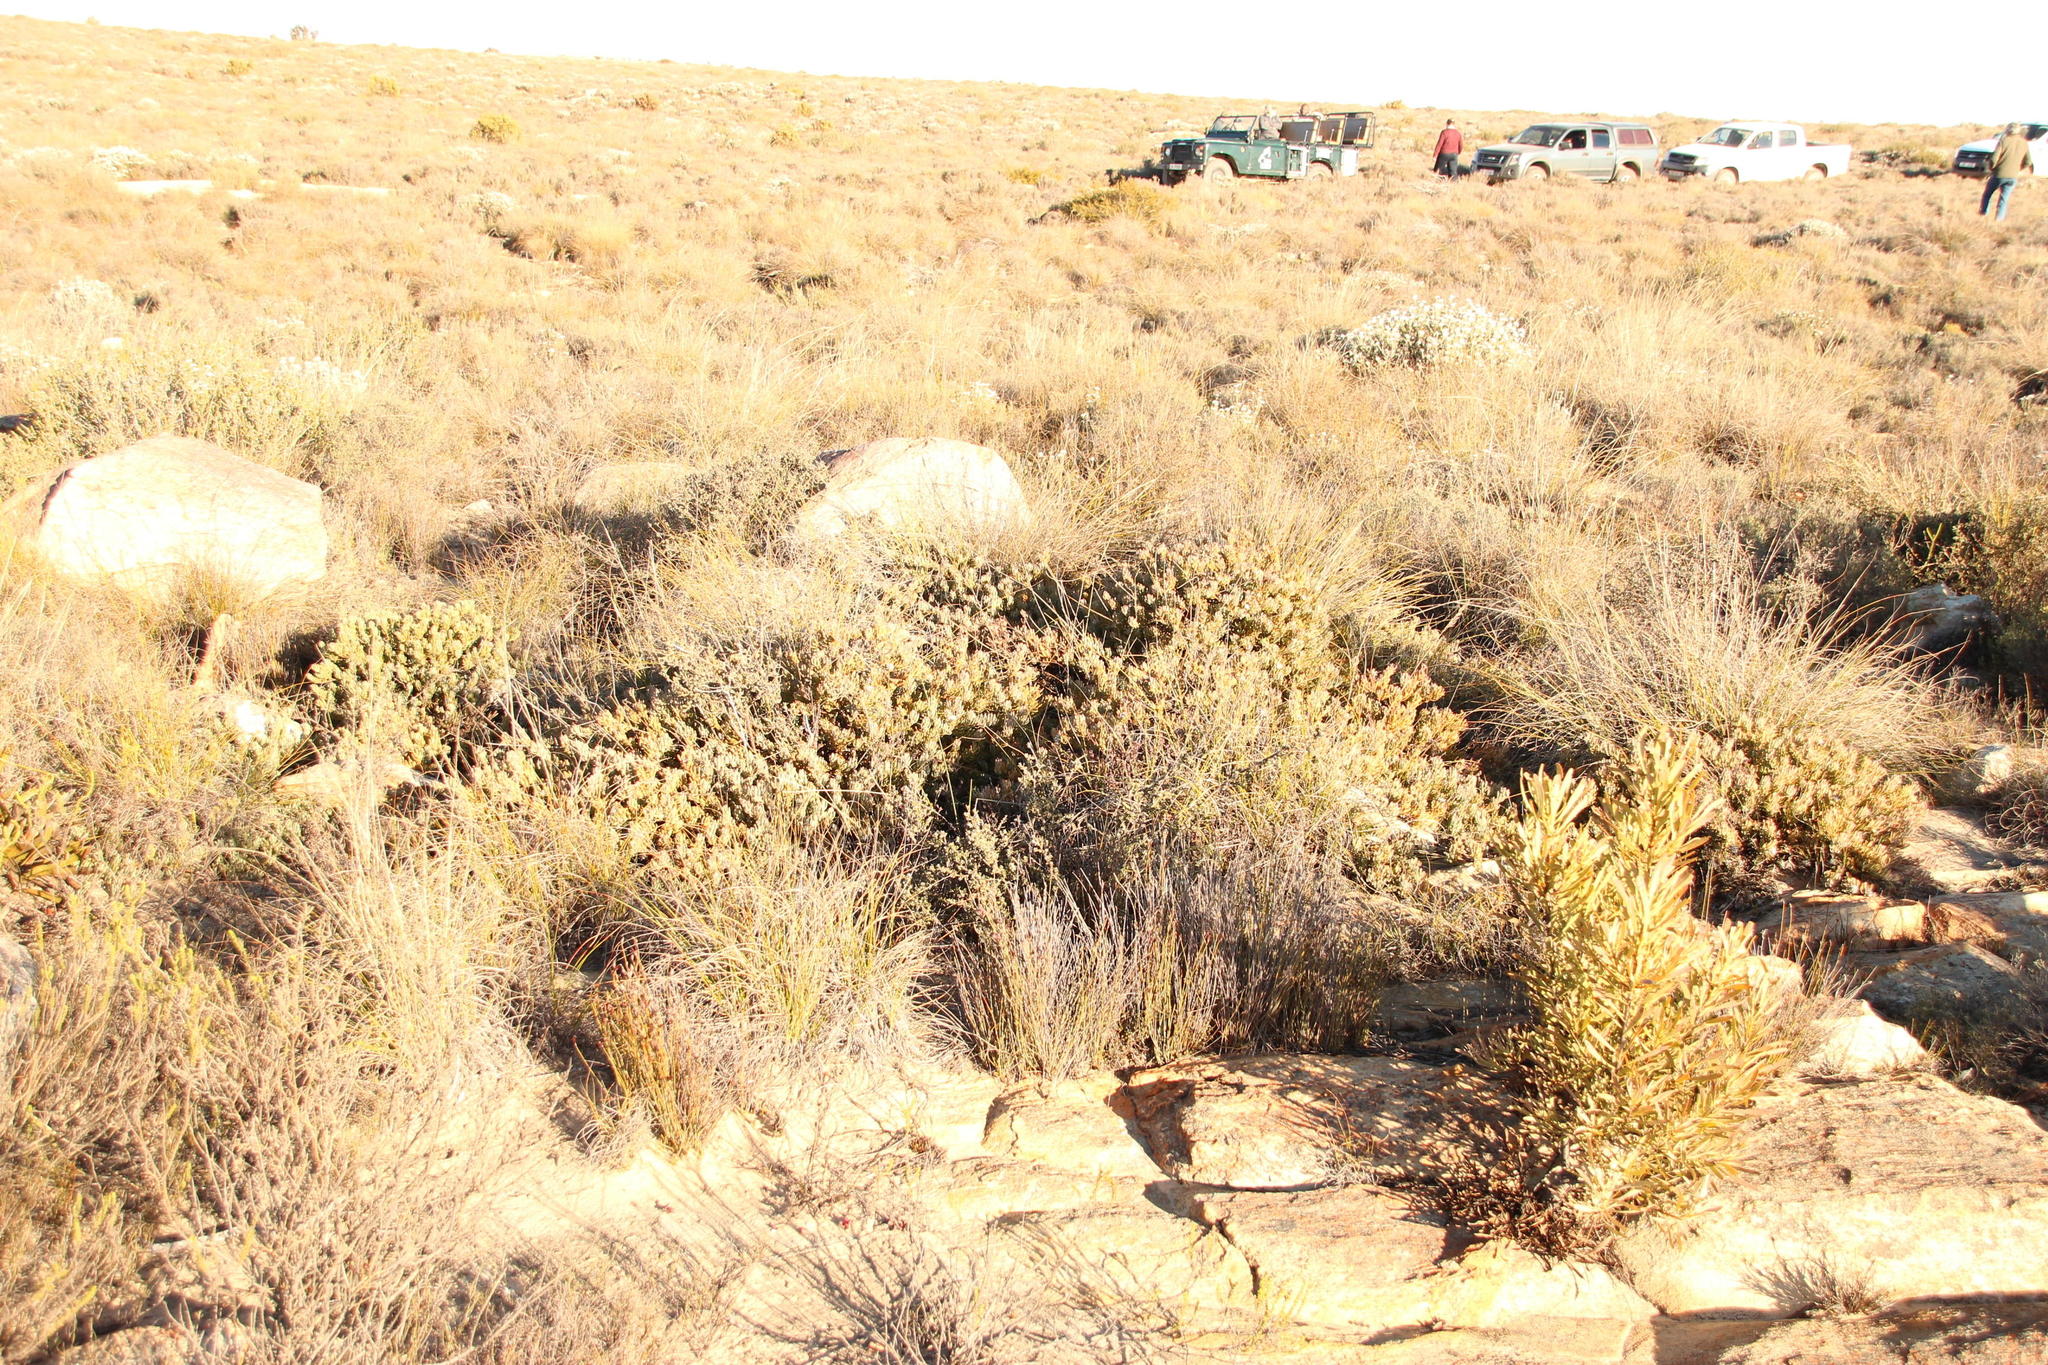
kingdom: Plantae
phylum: Tracheophyta
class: Magnoliopsida
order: Proteales
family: Proteaceae
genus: Vexatorella
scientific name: Vexatorella obtusata
